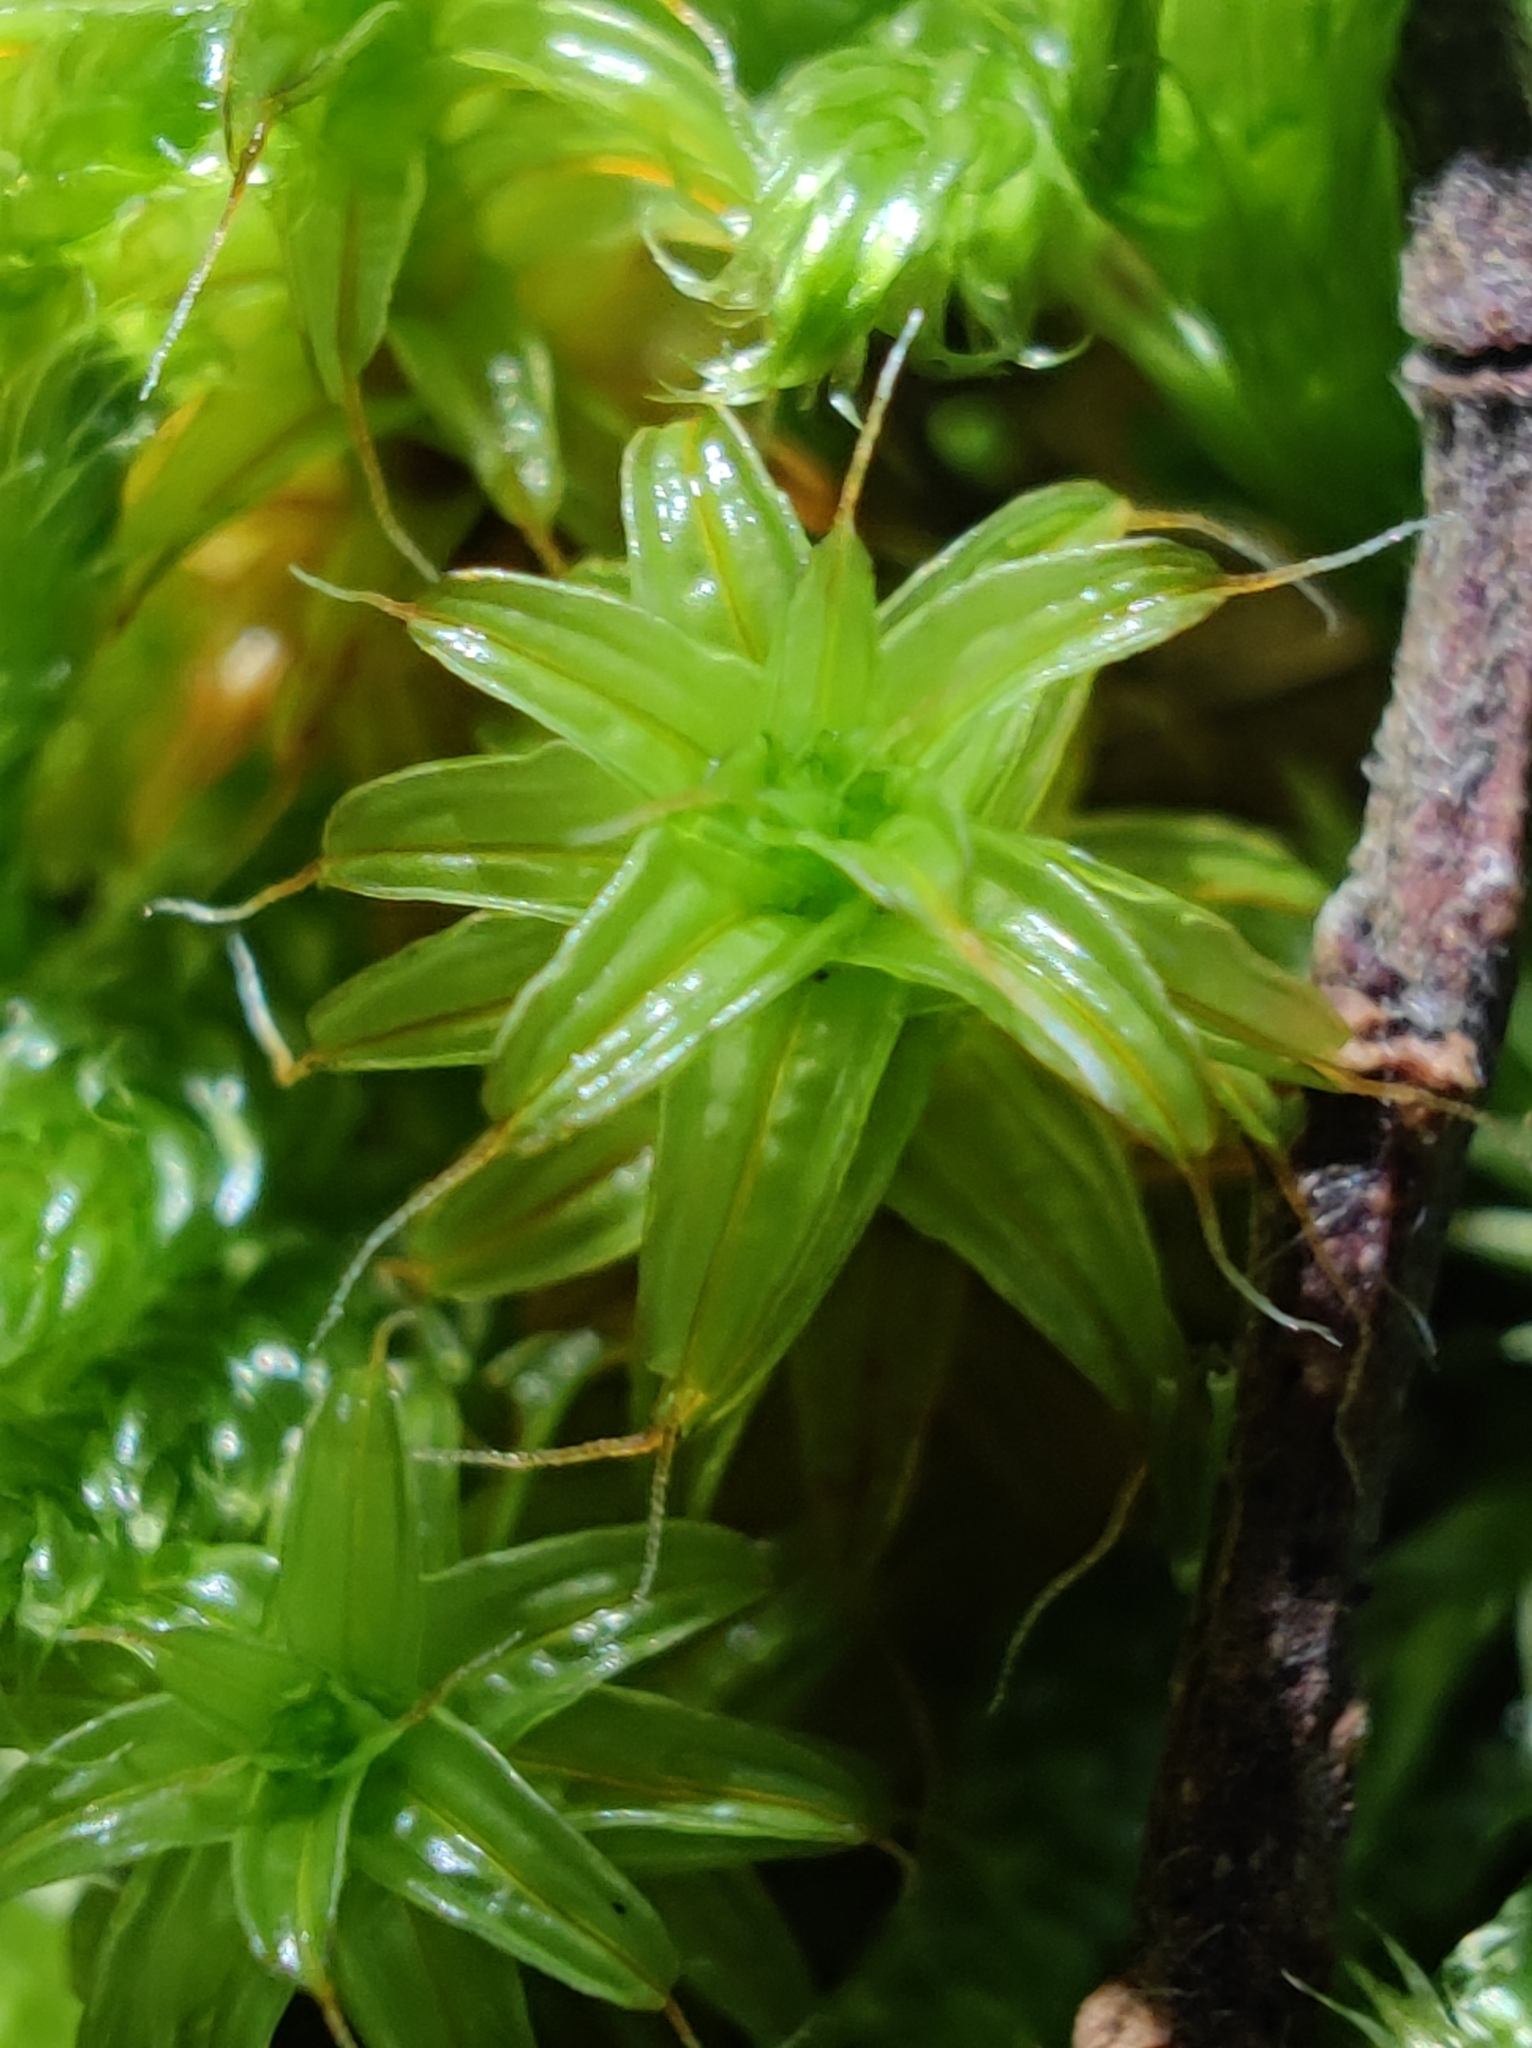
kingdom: Plantae
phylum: Bryophyta
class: Bryopsida
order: Pottiales
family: Pottiaceae
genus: Syntrichia
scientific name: Syntrichia ruralis
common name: Sidewalk screw moss
